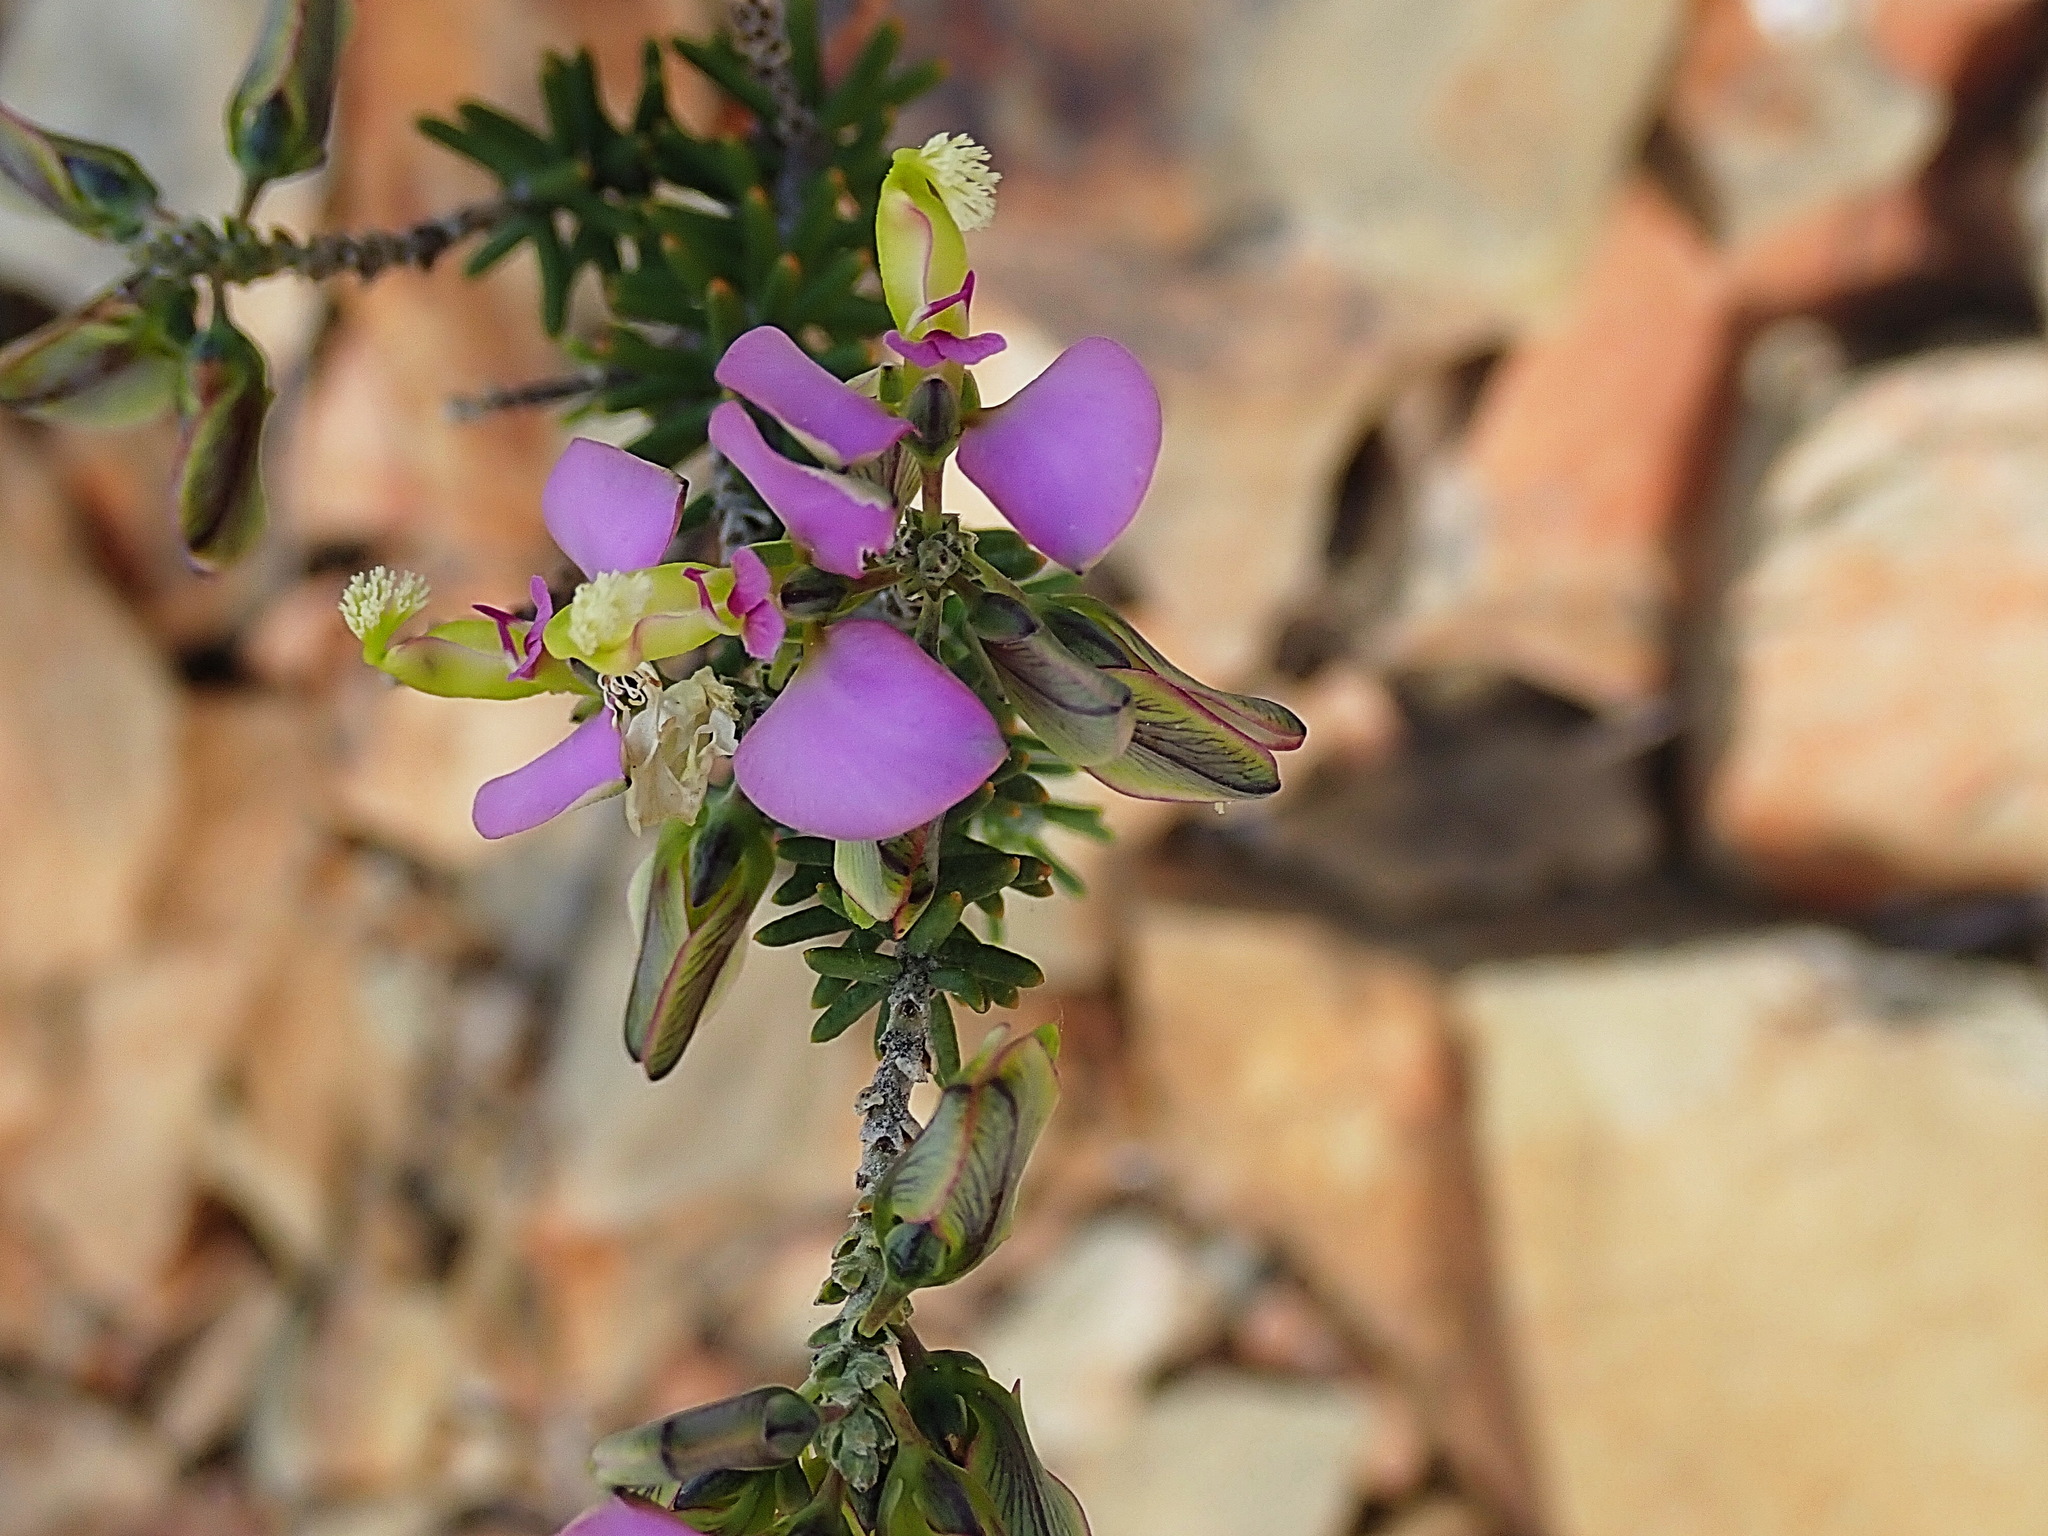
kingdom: Plantae
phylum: Tracheophyta
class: Magnoliopsida
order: Fabales
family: Polygalaceae
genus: Polygala
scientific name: Polygala teretifolia
